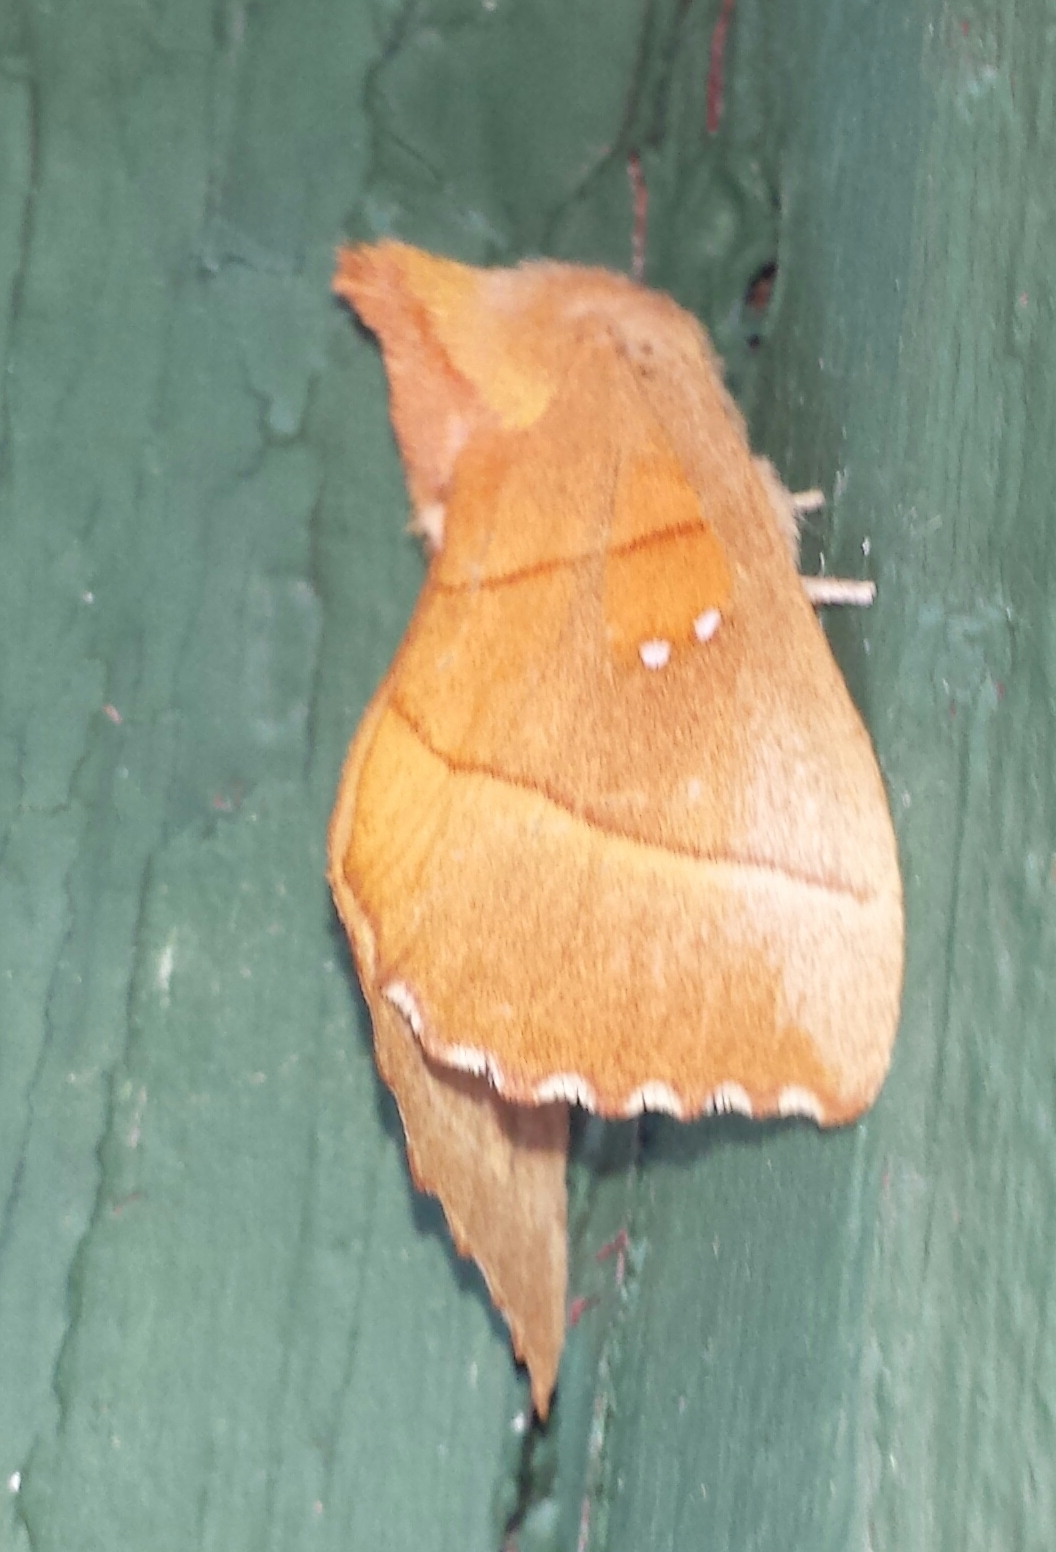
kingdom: Animalia
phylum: Arthropoda
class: Insecta
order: Lepidoptera
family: Notodontidae
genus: Nadata
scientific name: Nadata gibbosa
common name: White-dotted prominent
